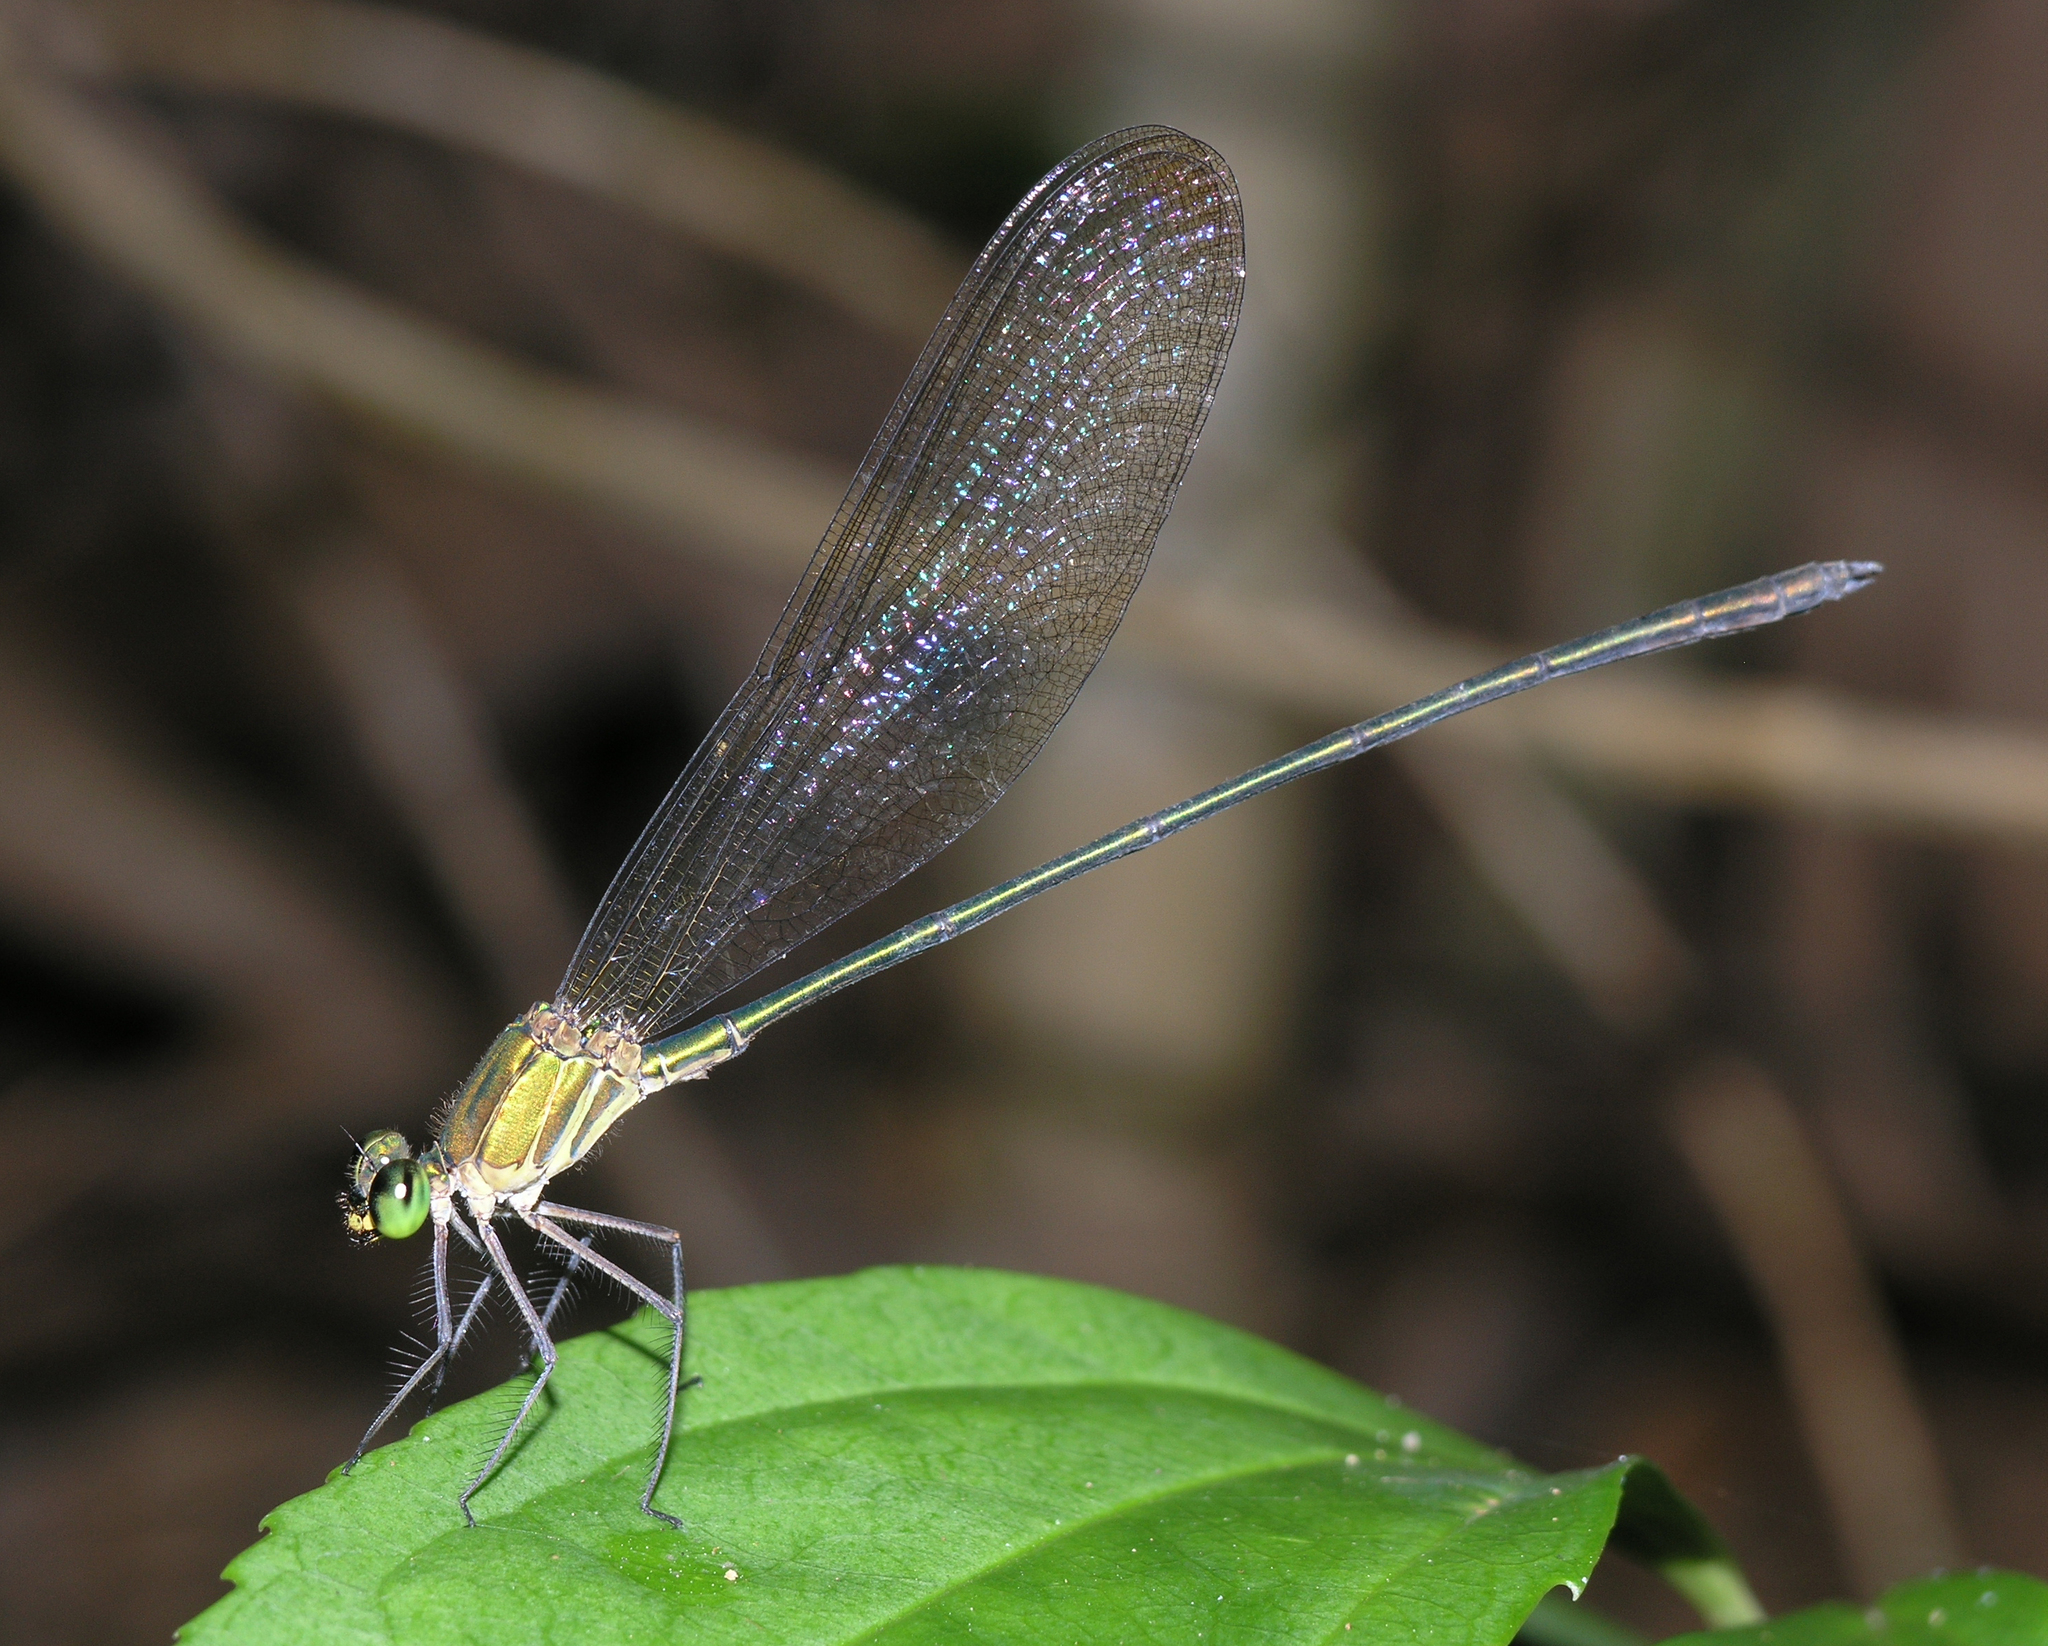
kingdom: Animalia
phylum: Arthropoda
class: Insecta
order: Odonata
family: Calopterygidae
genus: Vestalis
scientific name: Vestalis gracilis
